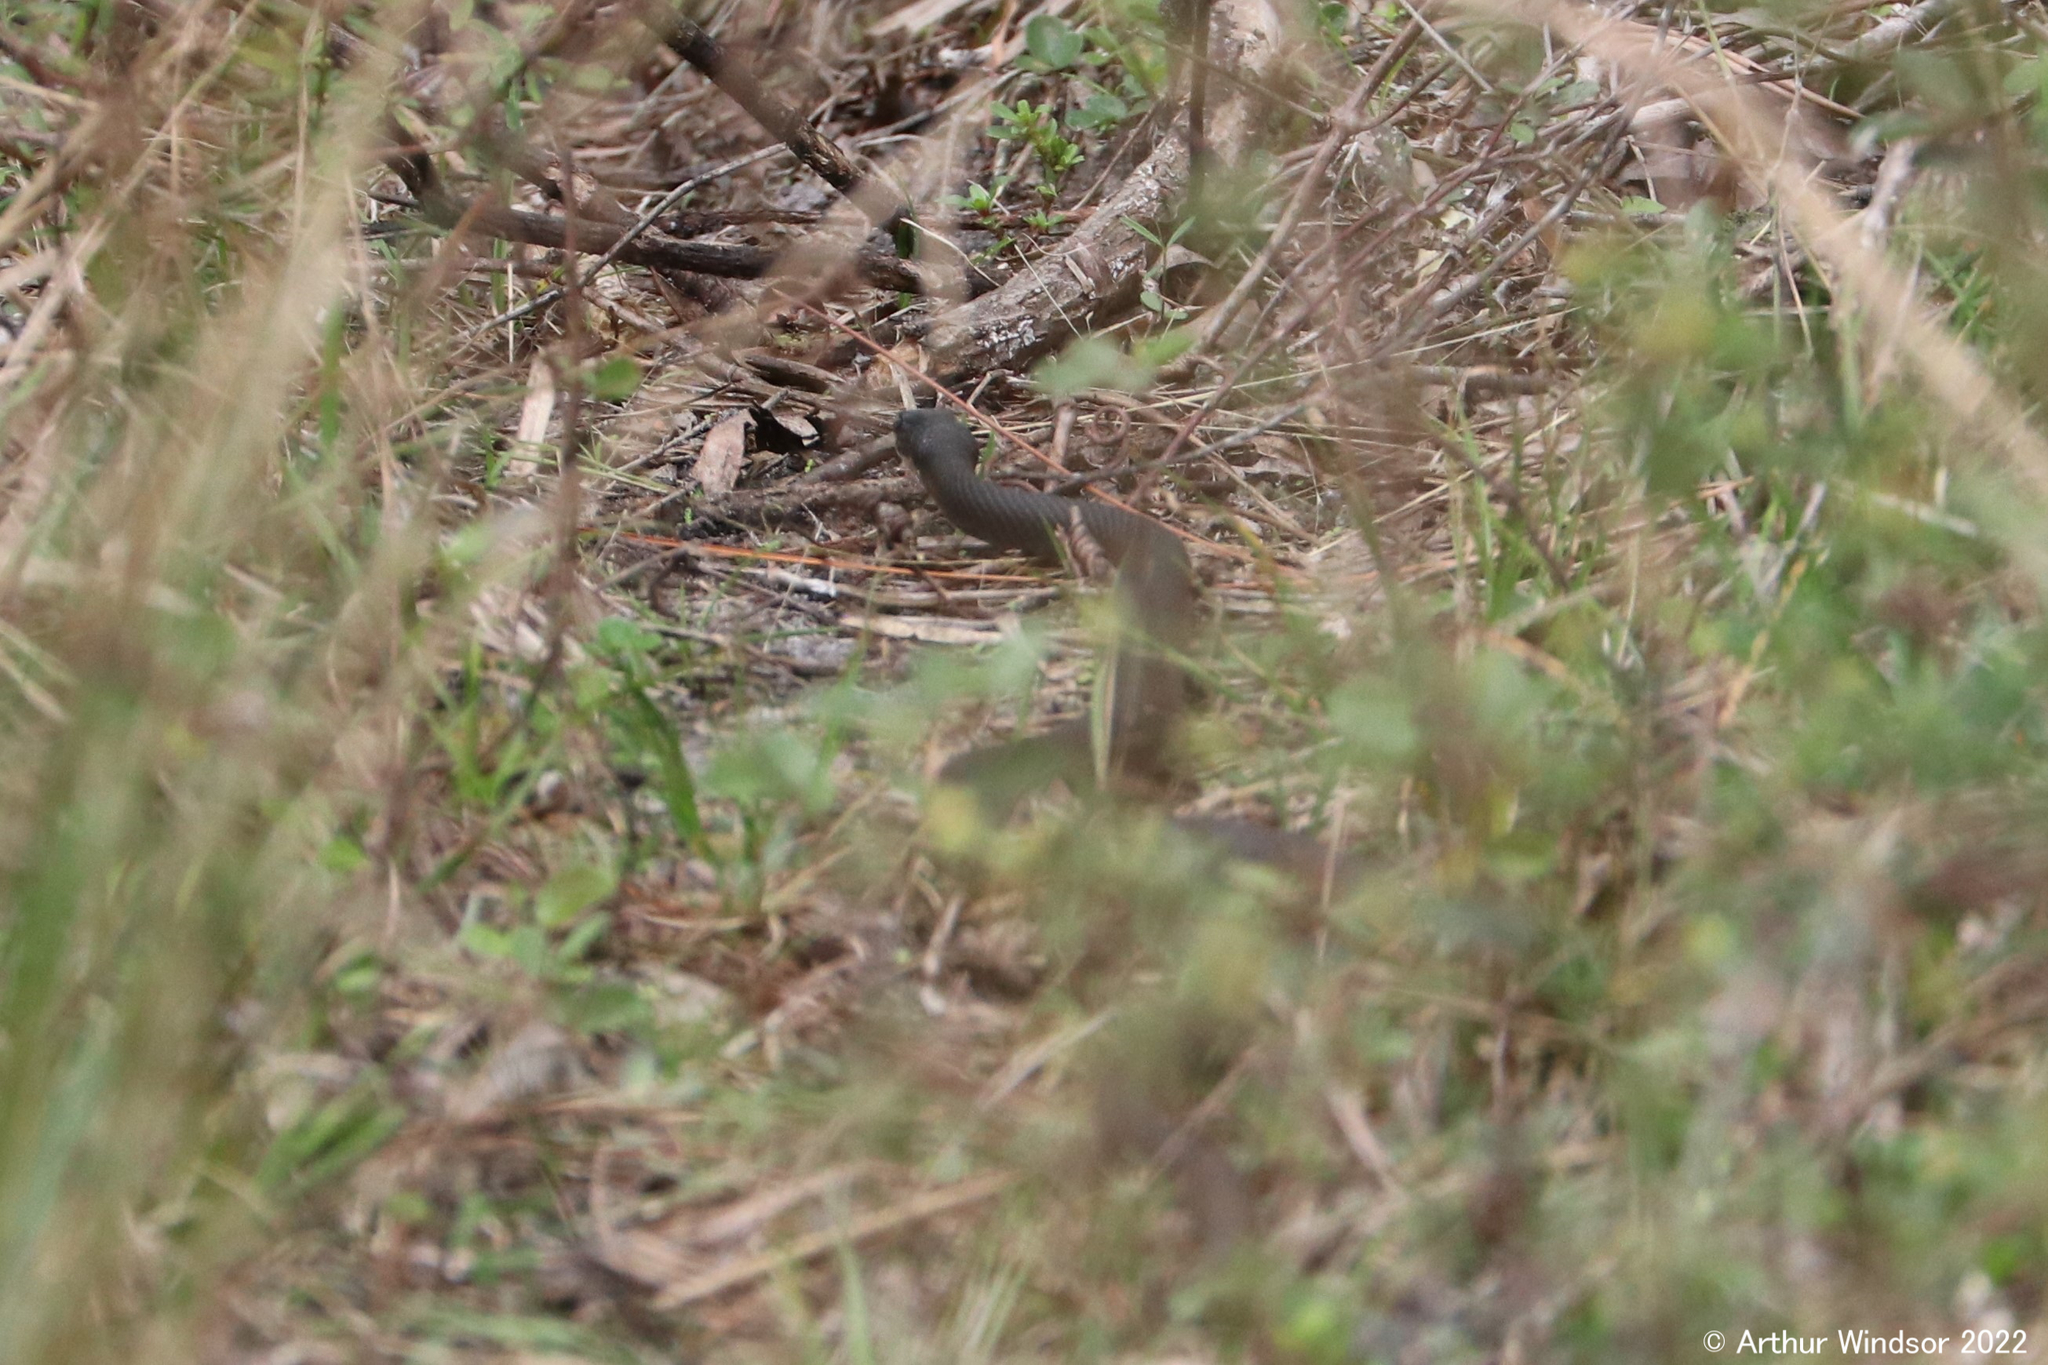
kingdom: Animalia
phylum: Chordata
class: Squamata
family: Colubridae
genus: Coluber
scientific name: Coluber constrictor
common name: Eastern racer
